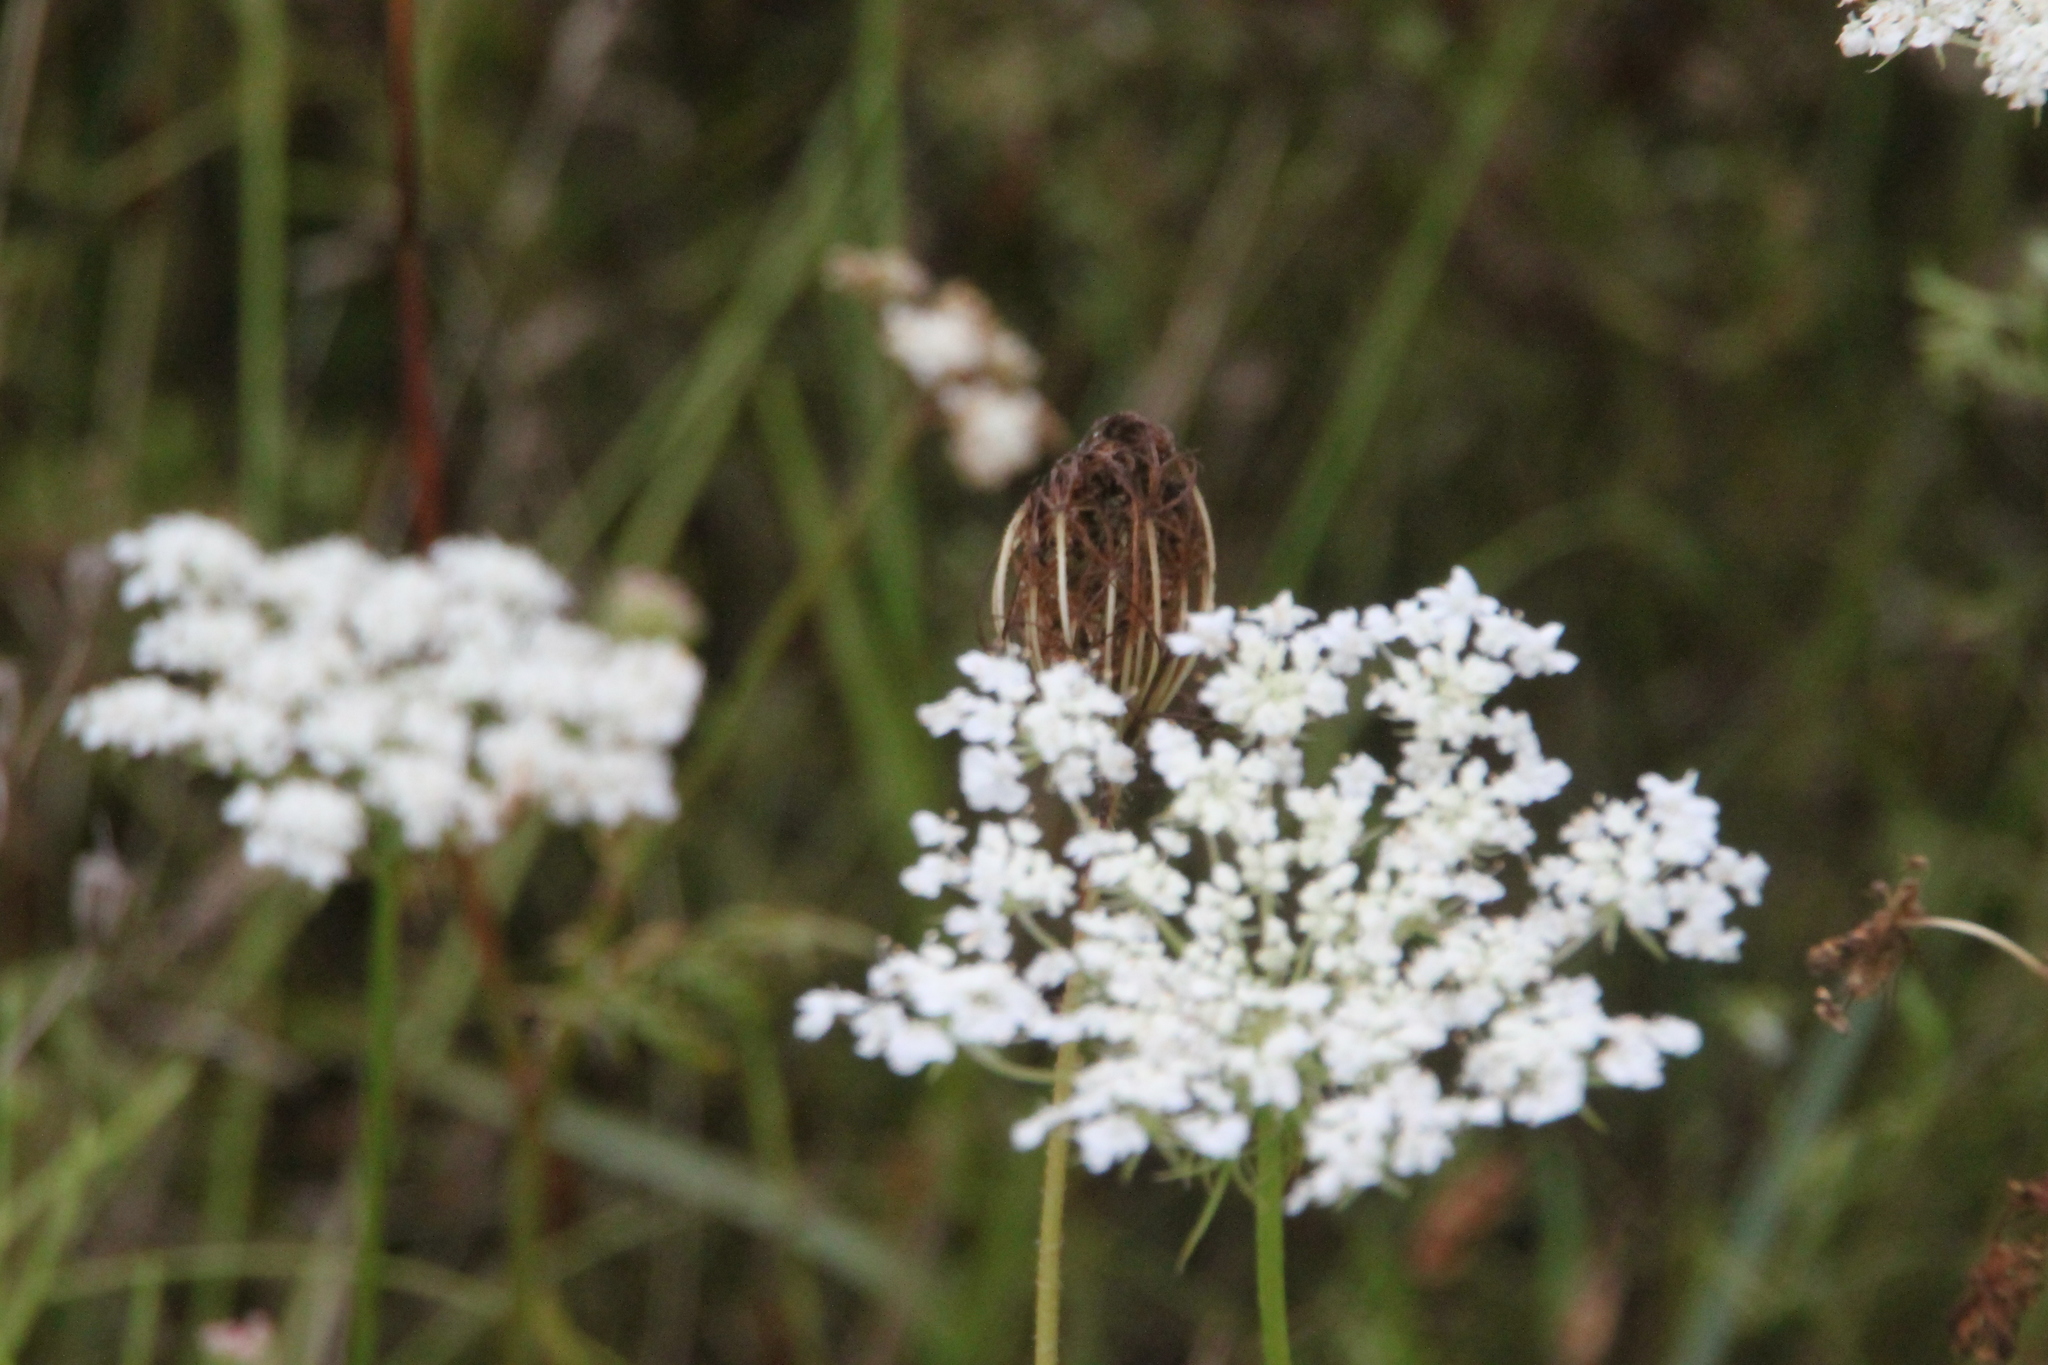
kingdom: Plantae
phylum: Tracheophyta
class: Magnoliopsida
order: Apiales
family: Apiaceae
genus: Daucus
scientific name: Daucus carota
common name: Wild carrot
